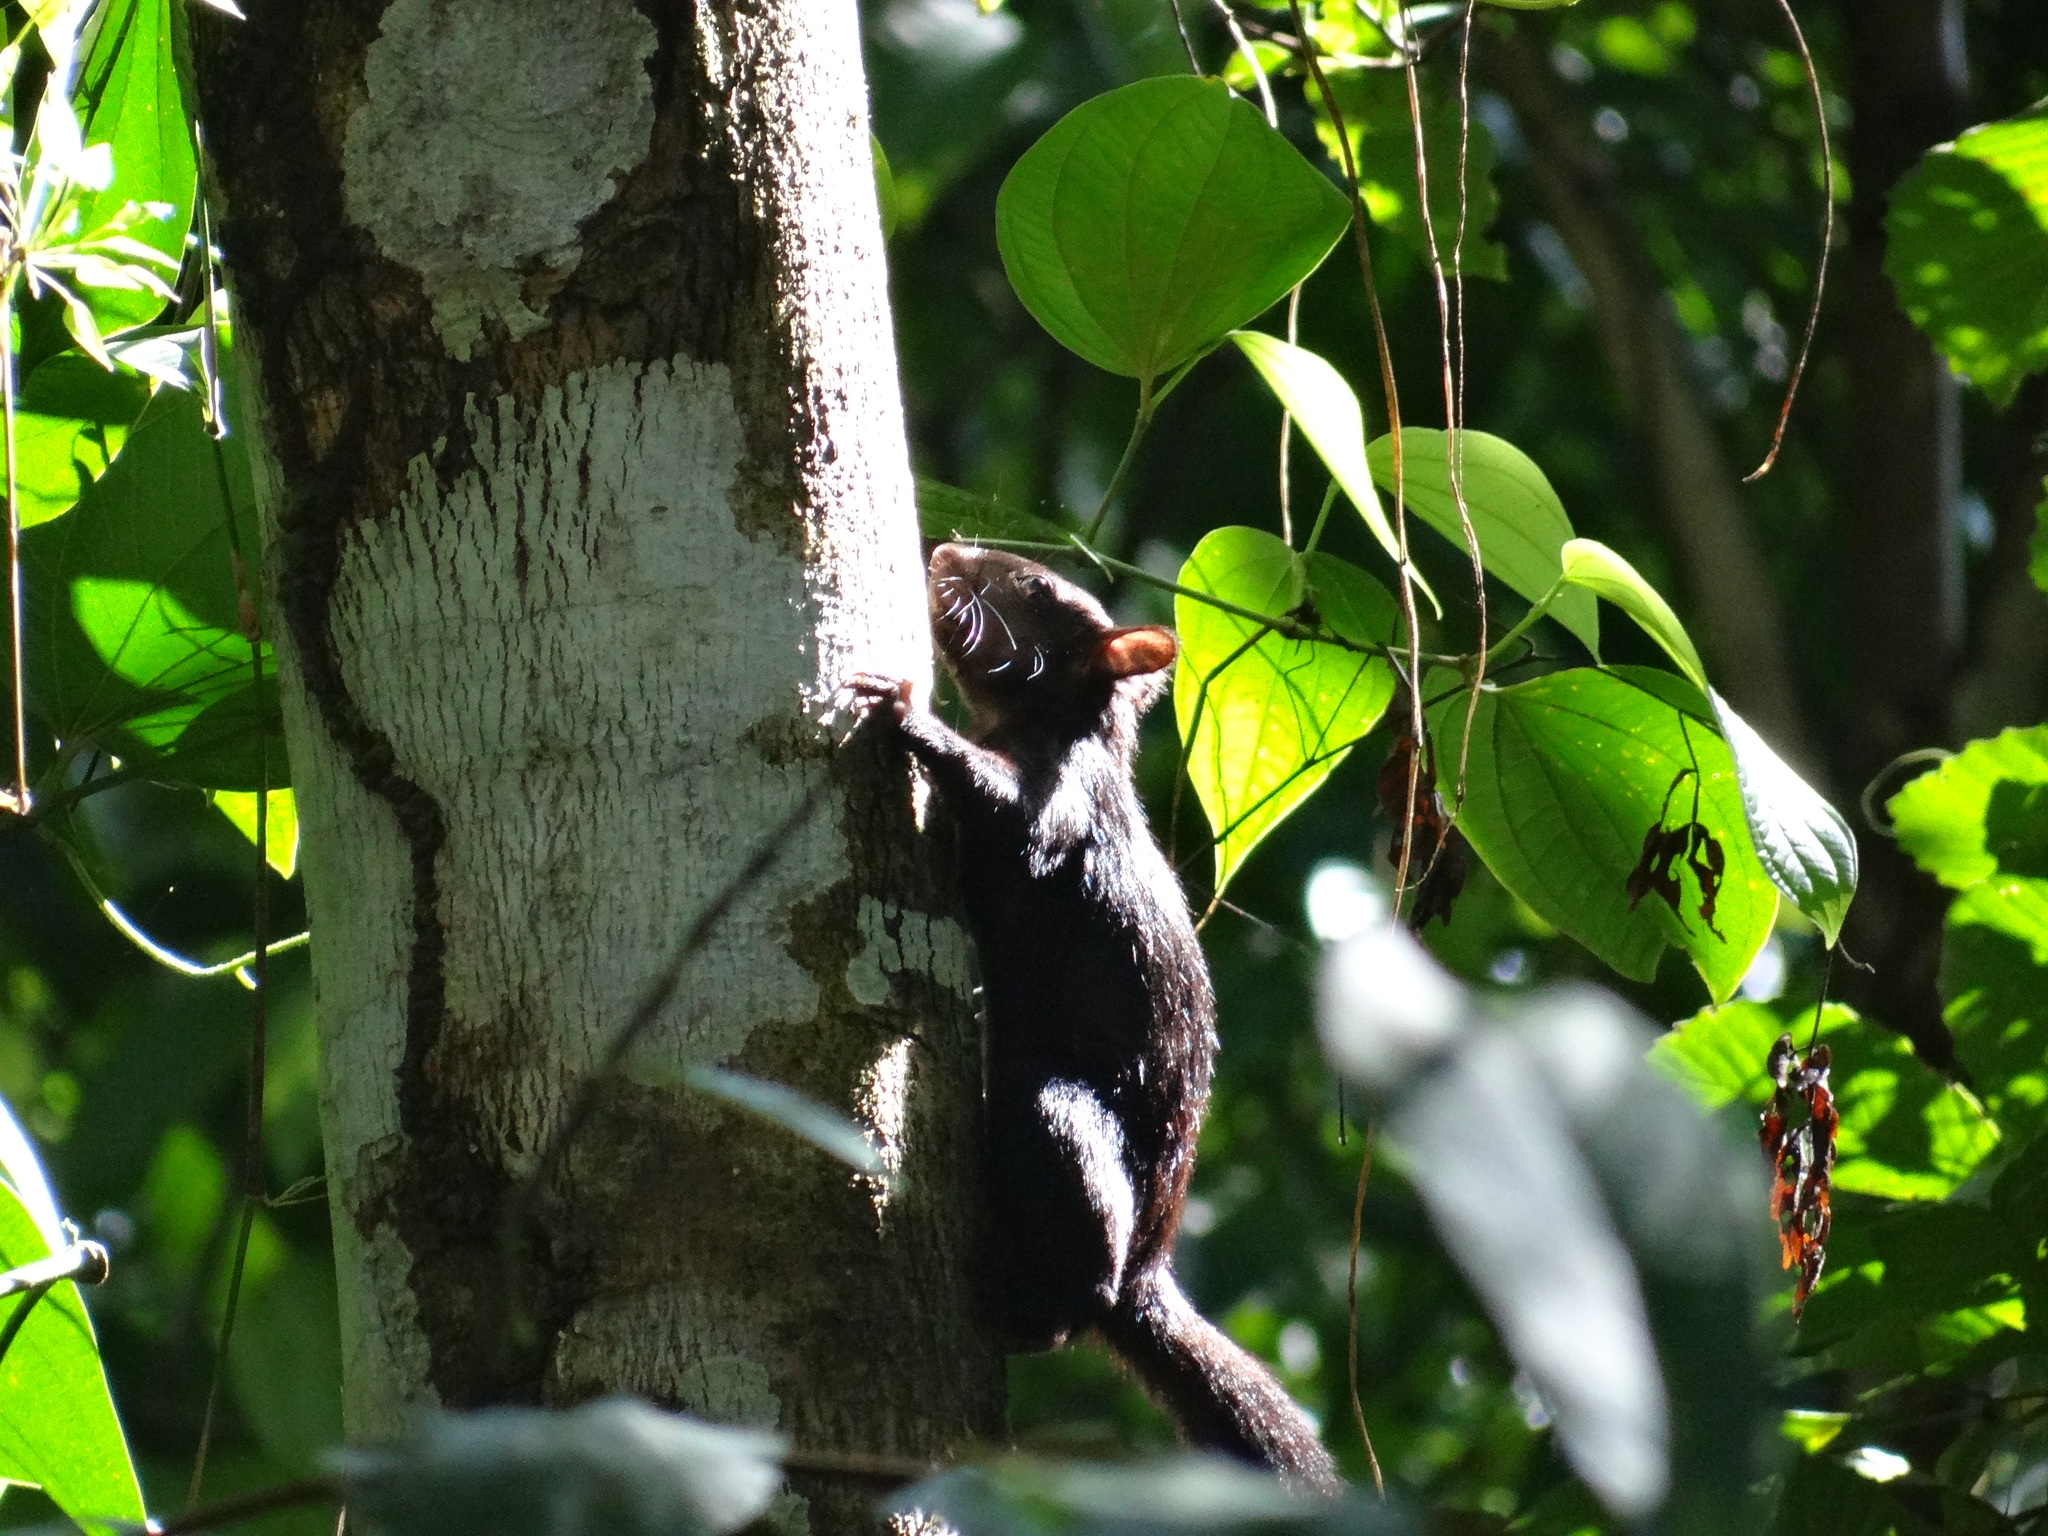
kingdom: Animalia
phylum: Chordata
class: Mammalia
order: Rodentia
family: Sciuridae
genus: Sciurus
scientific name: Sciurus variegatoides
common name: Variegated squirrel
